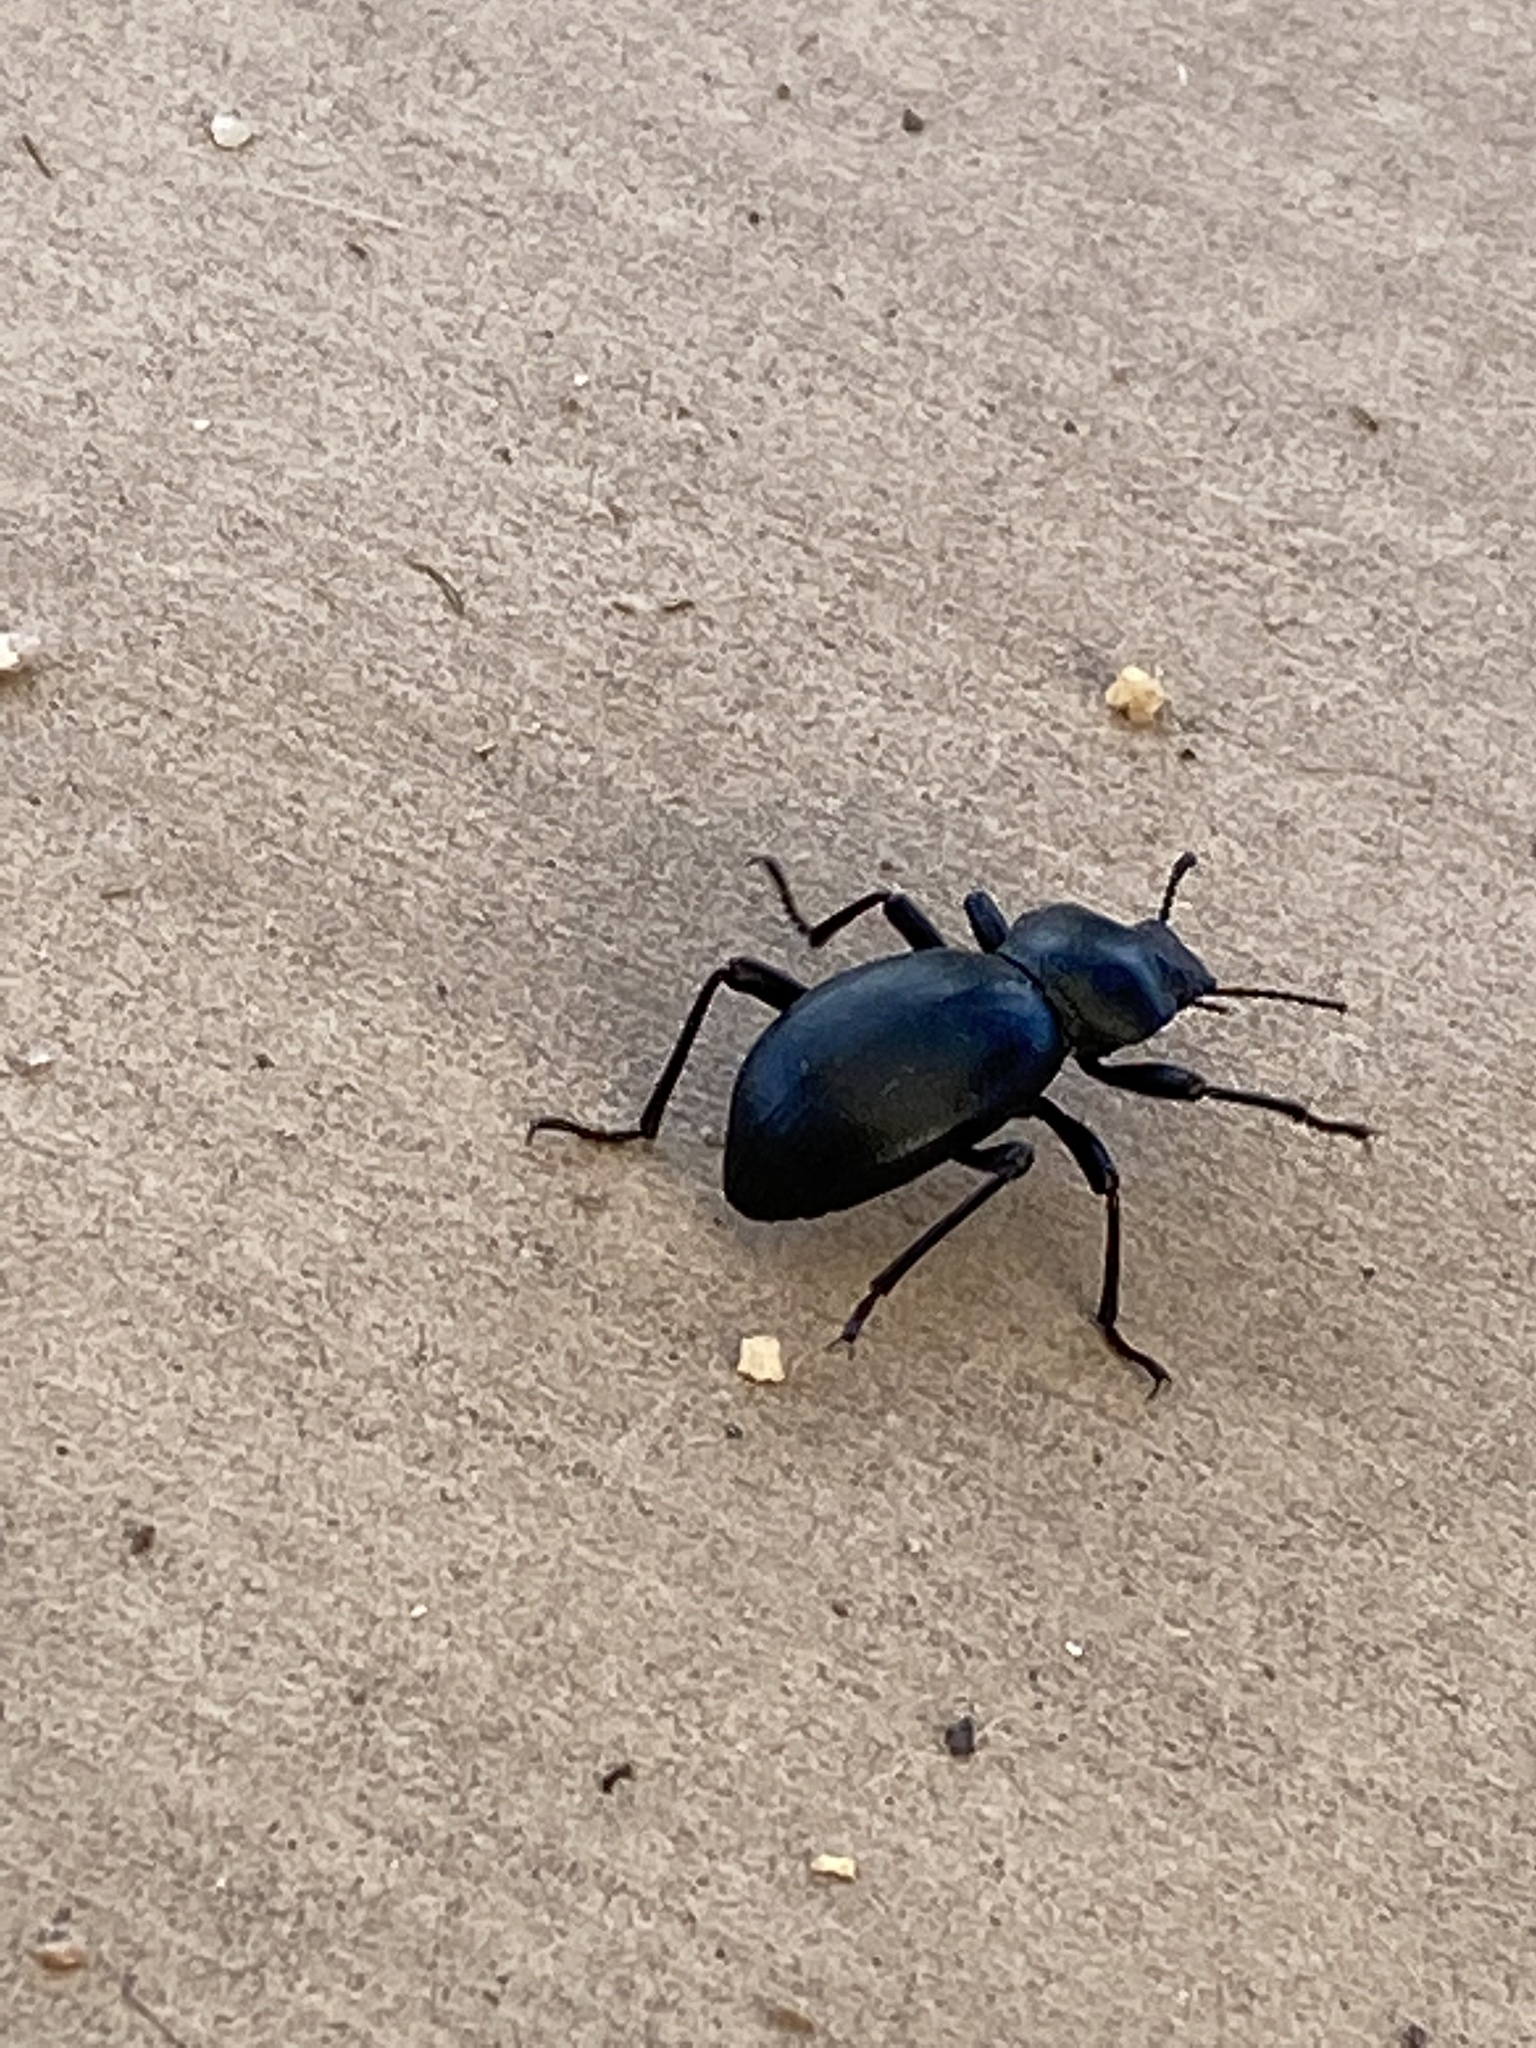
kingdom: Animalia
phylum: Arthropoda
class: Insecta
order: Coleoptera
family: Tenebrionidae
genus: Coelocnemis
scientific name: Coelocnemis dilaticollis
